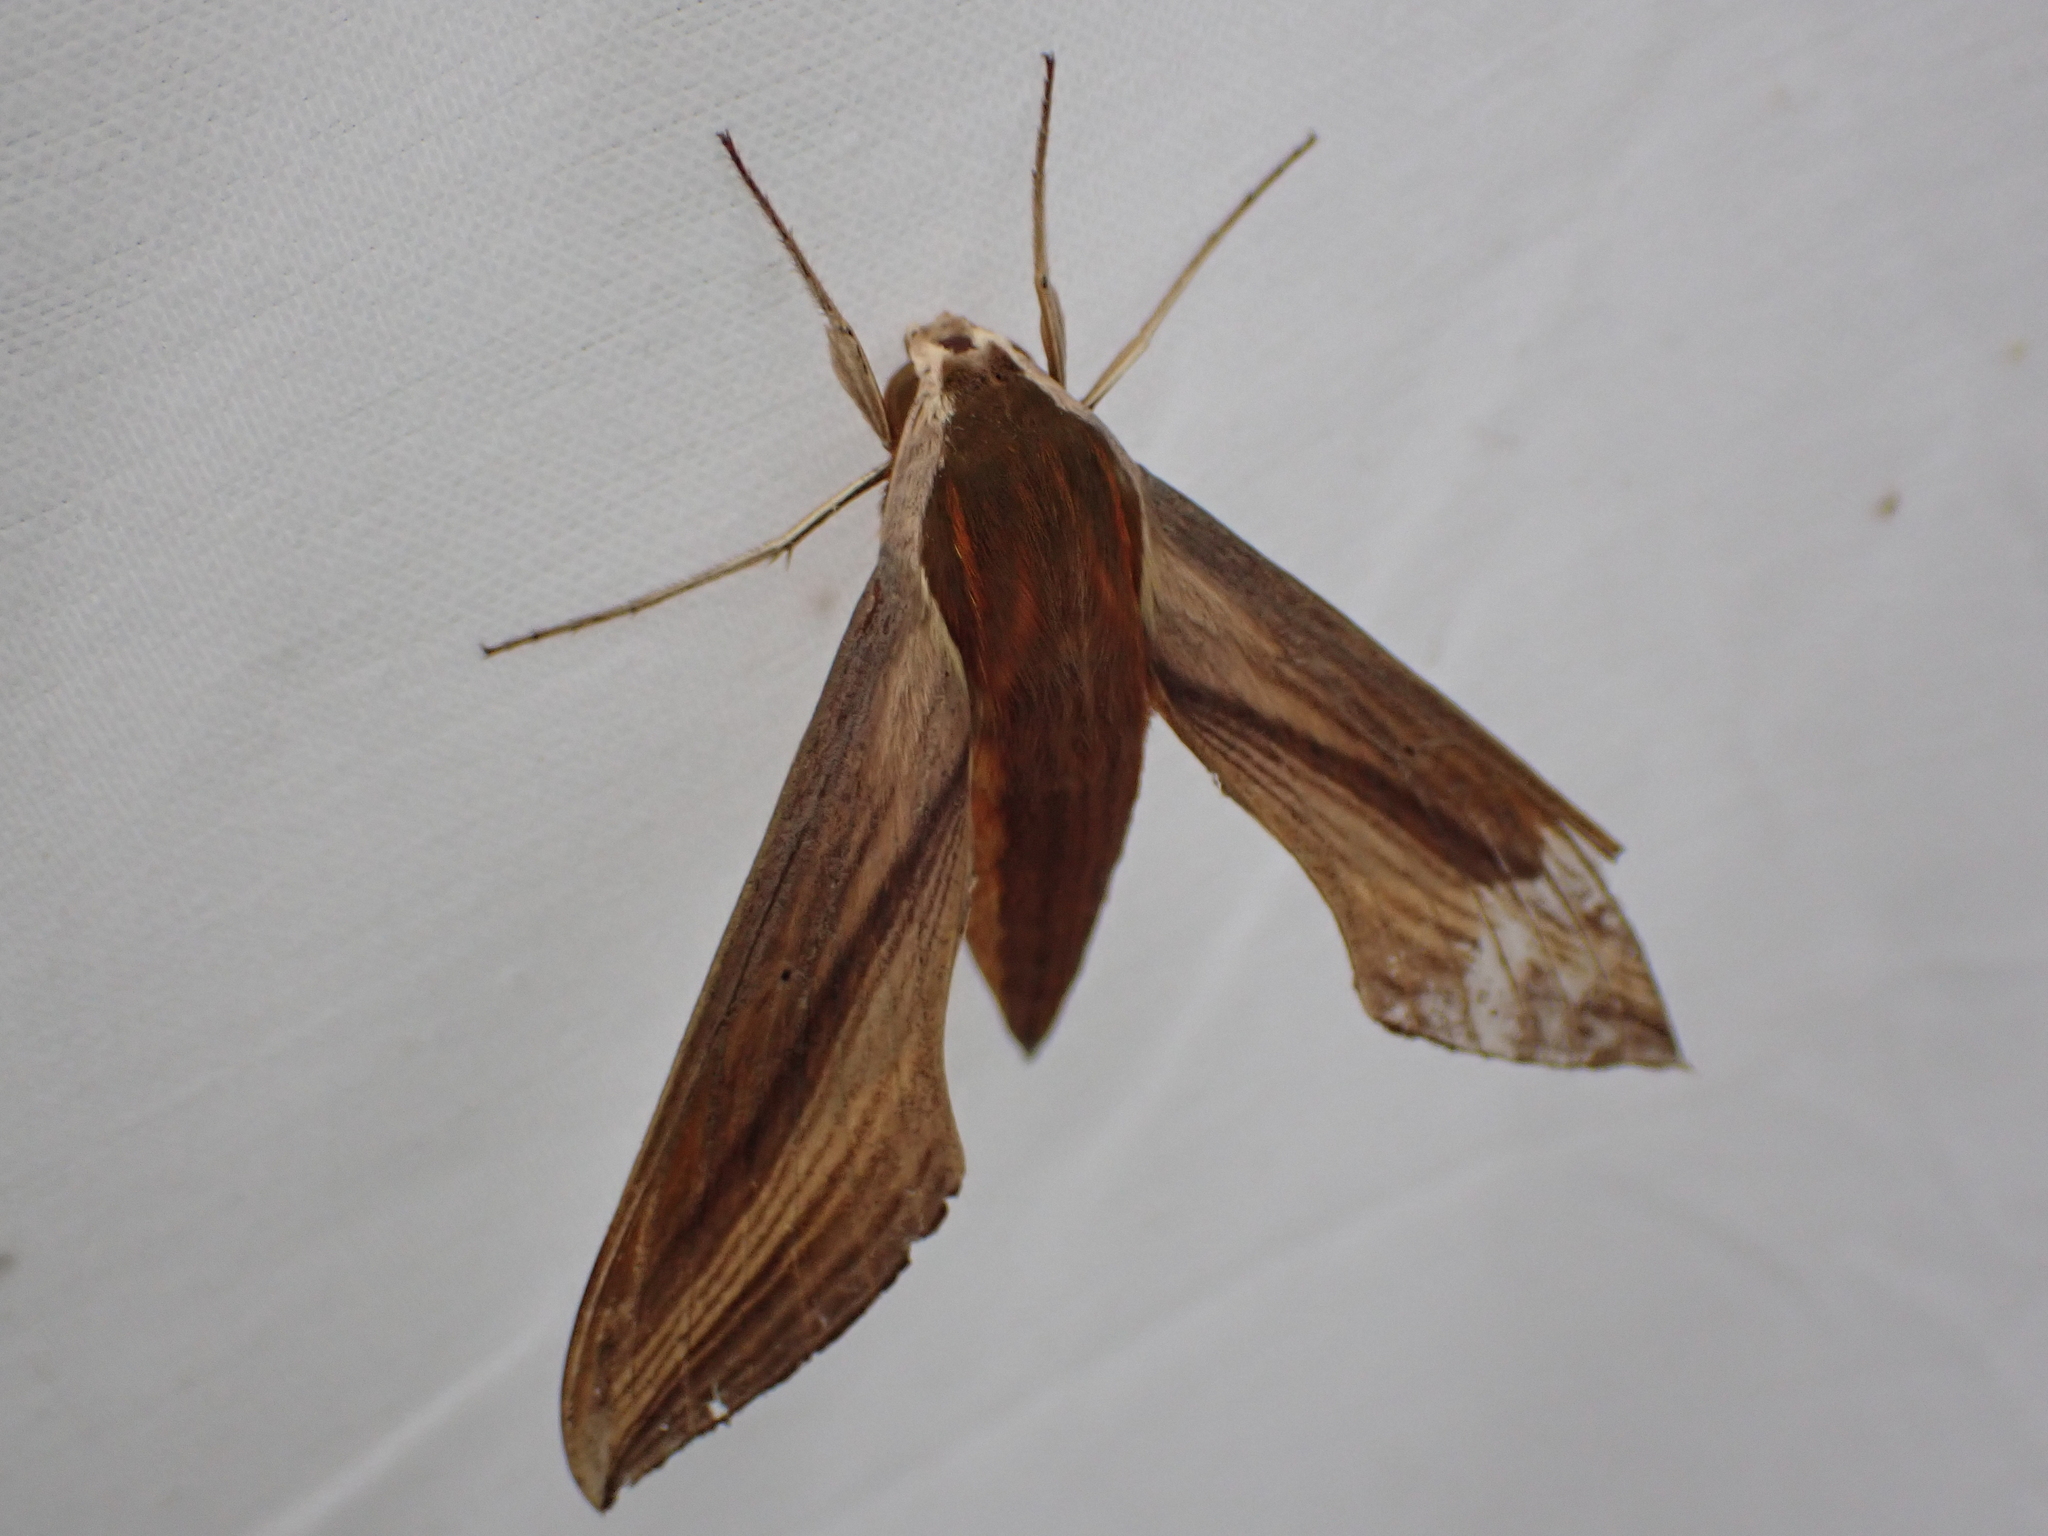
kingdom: Animalia
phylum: Arthropoda
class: Insecta
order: Lepidoptera
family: Sphingidae
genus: Xylophanes
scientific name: Xylophanes tersa
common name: Tersa sphinx
